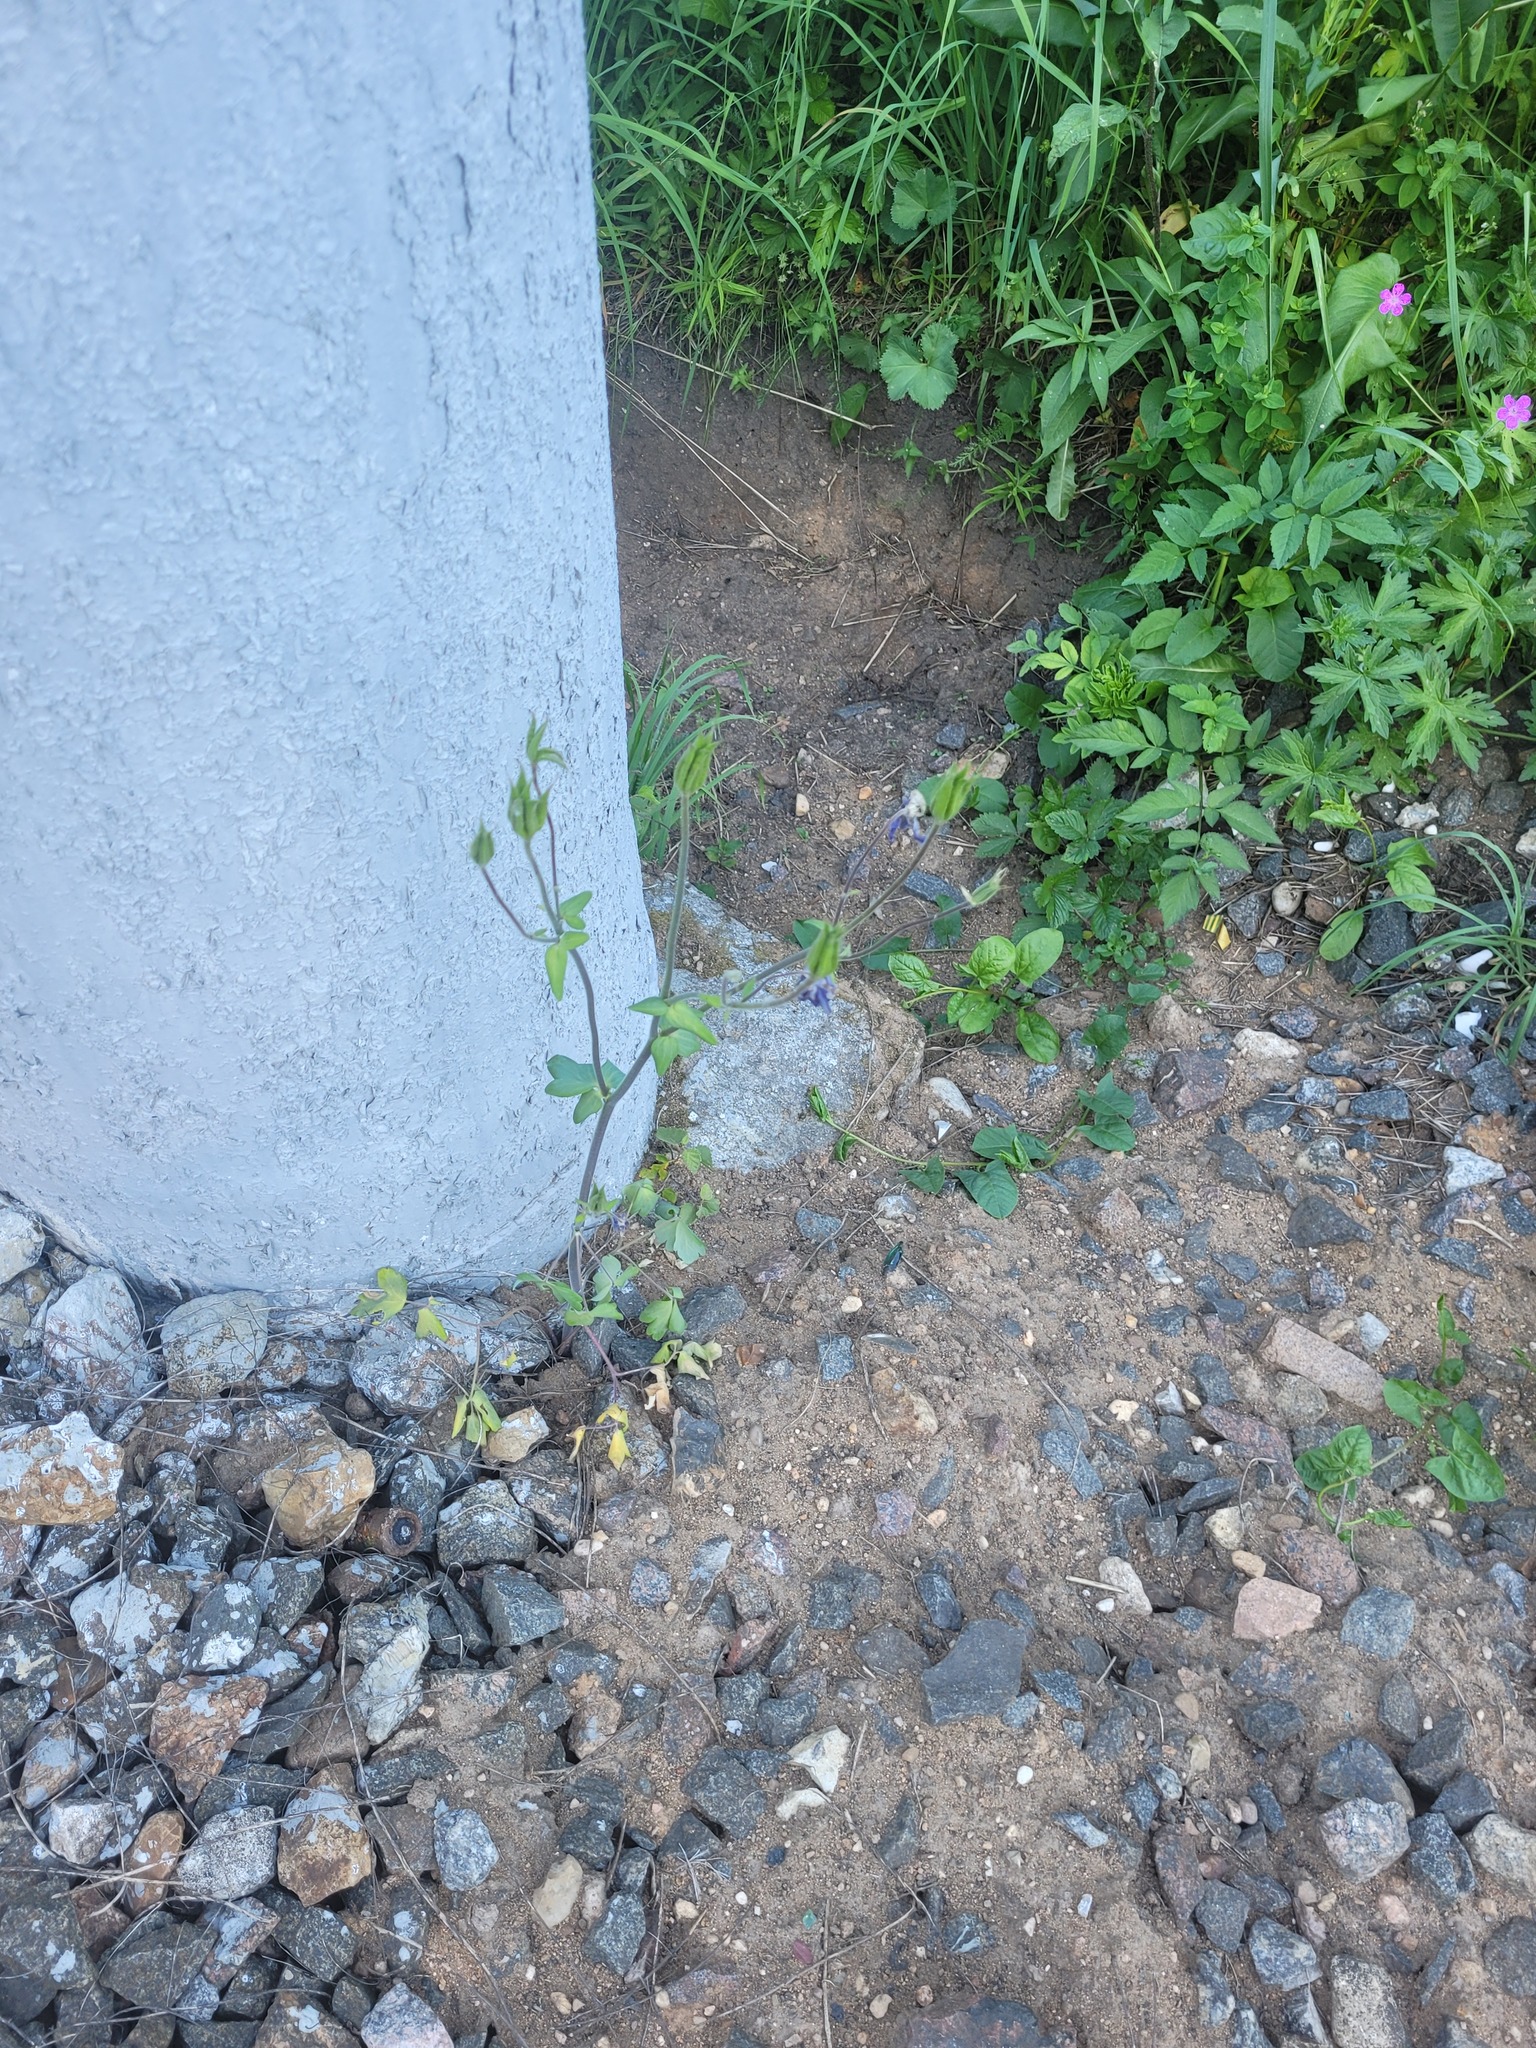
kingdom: Plantae
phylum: Tracheophyta
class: Magnoliopsida
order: Ranunculales
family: Ranunculaceae
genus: Aquilegia
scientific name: Aquilegia vulgaris
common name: Columbine
